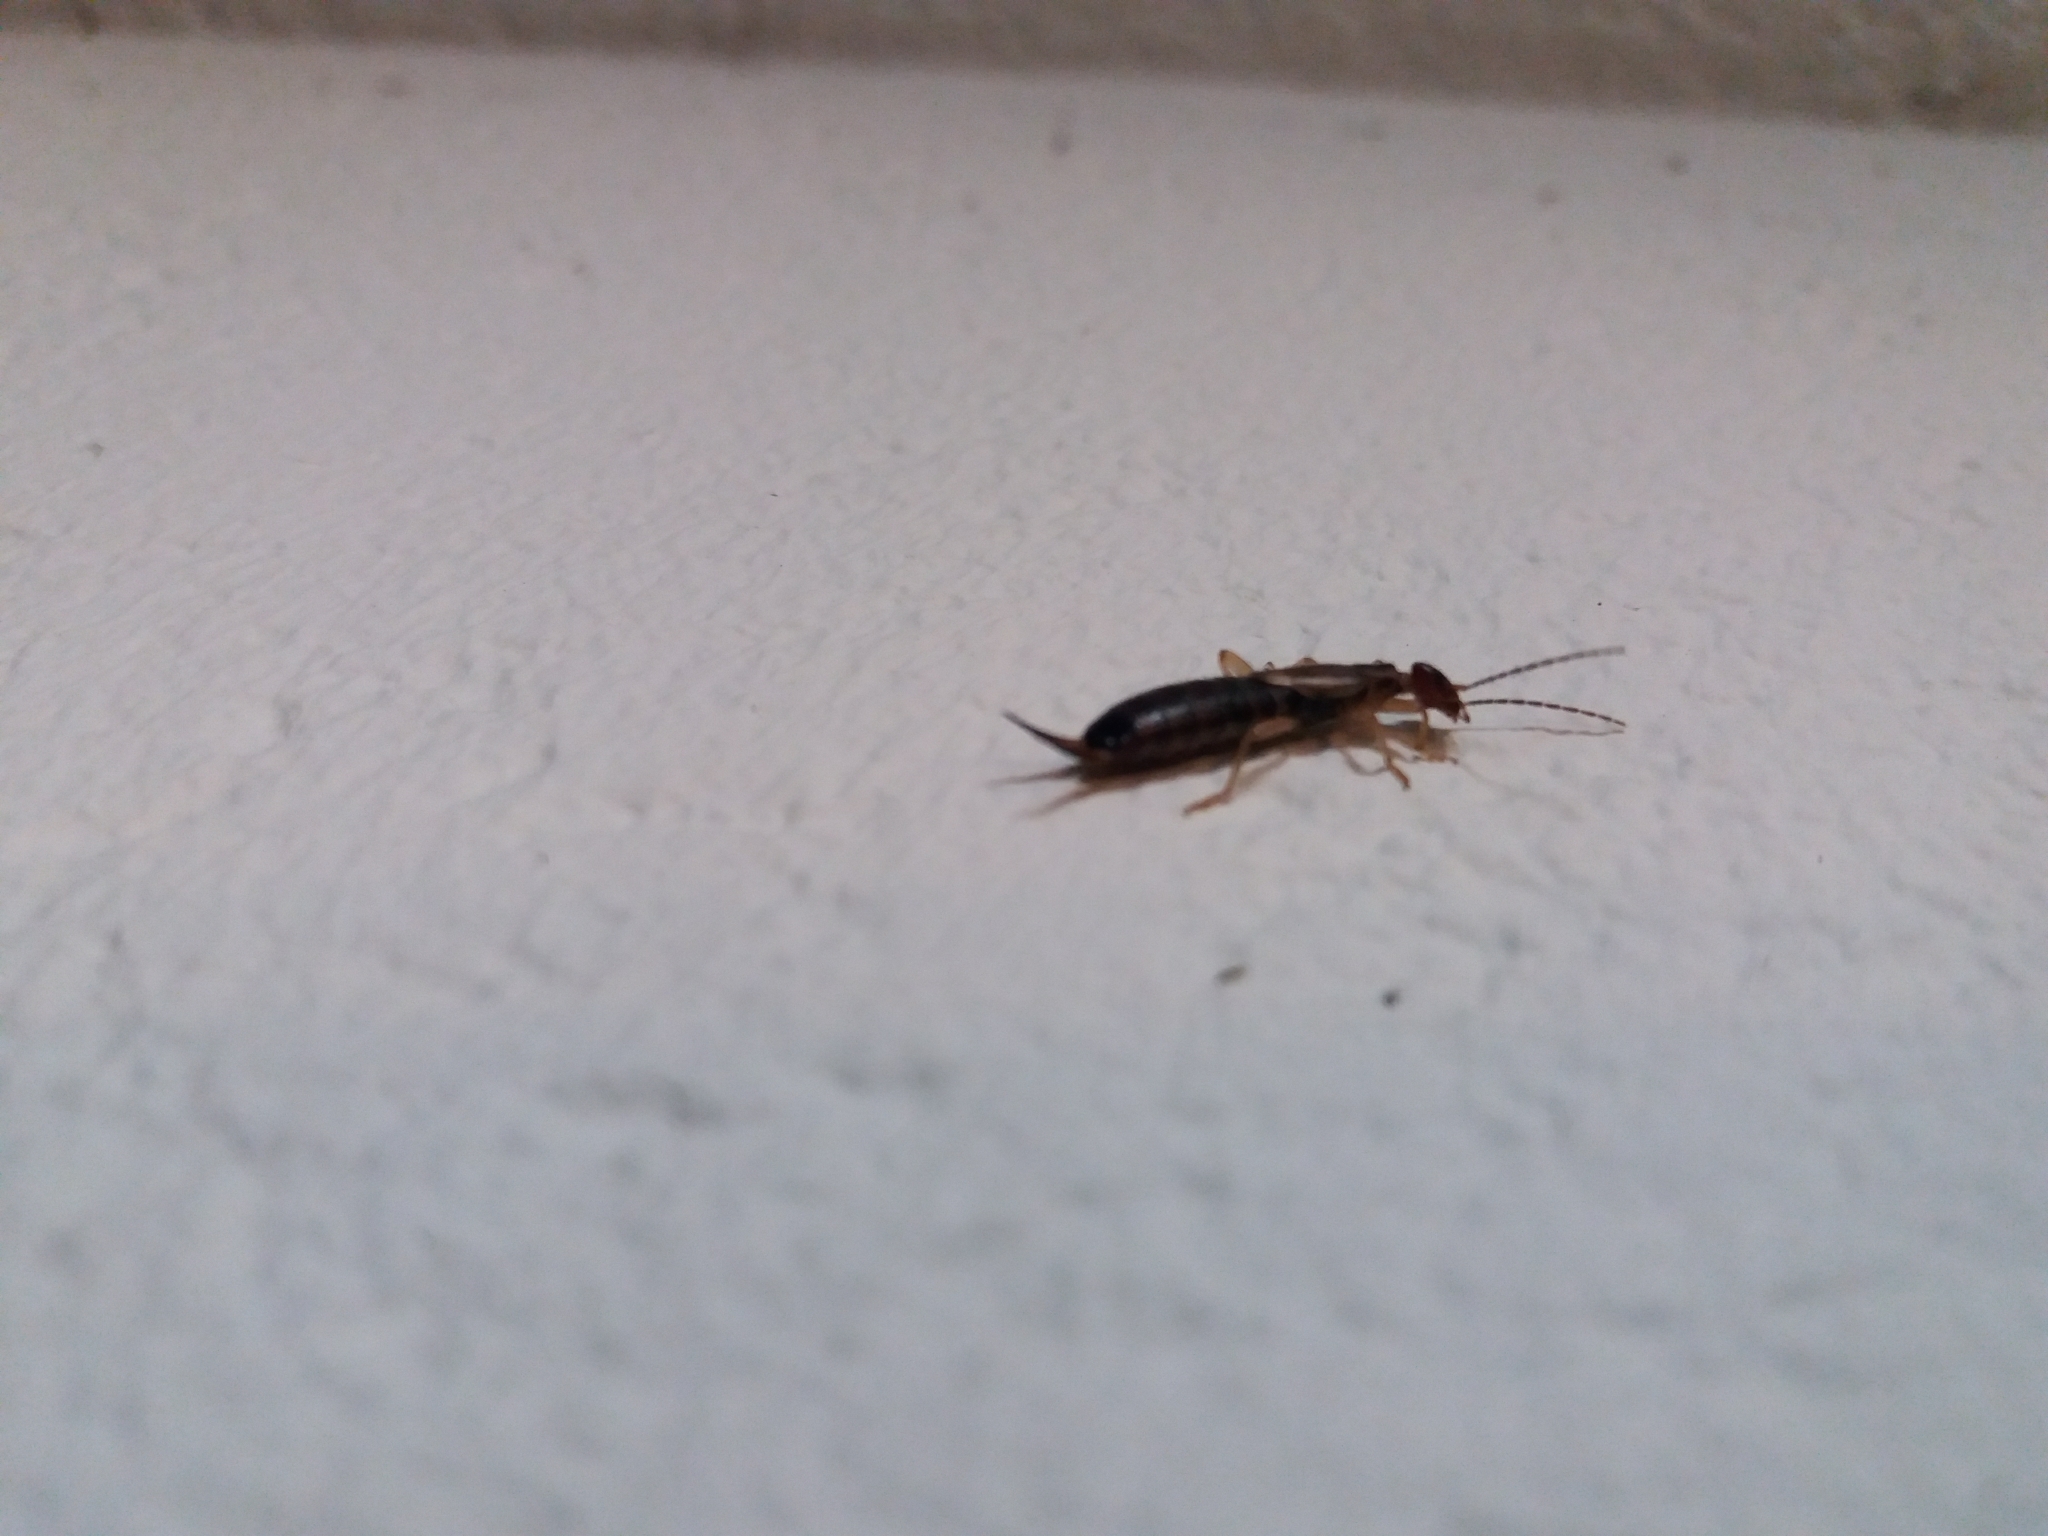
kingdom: Animalia
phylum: Arthropoda
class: Insecta
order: Dermaptera
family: Forficulidae
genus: Forficula
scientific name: Forficula
